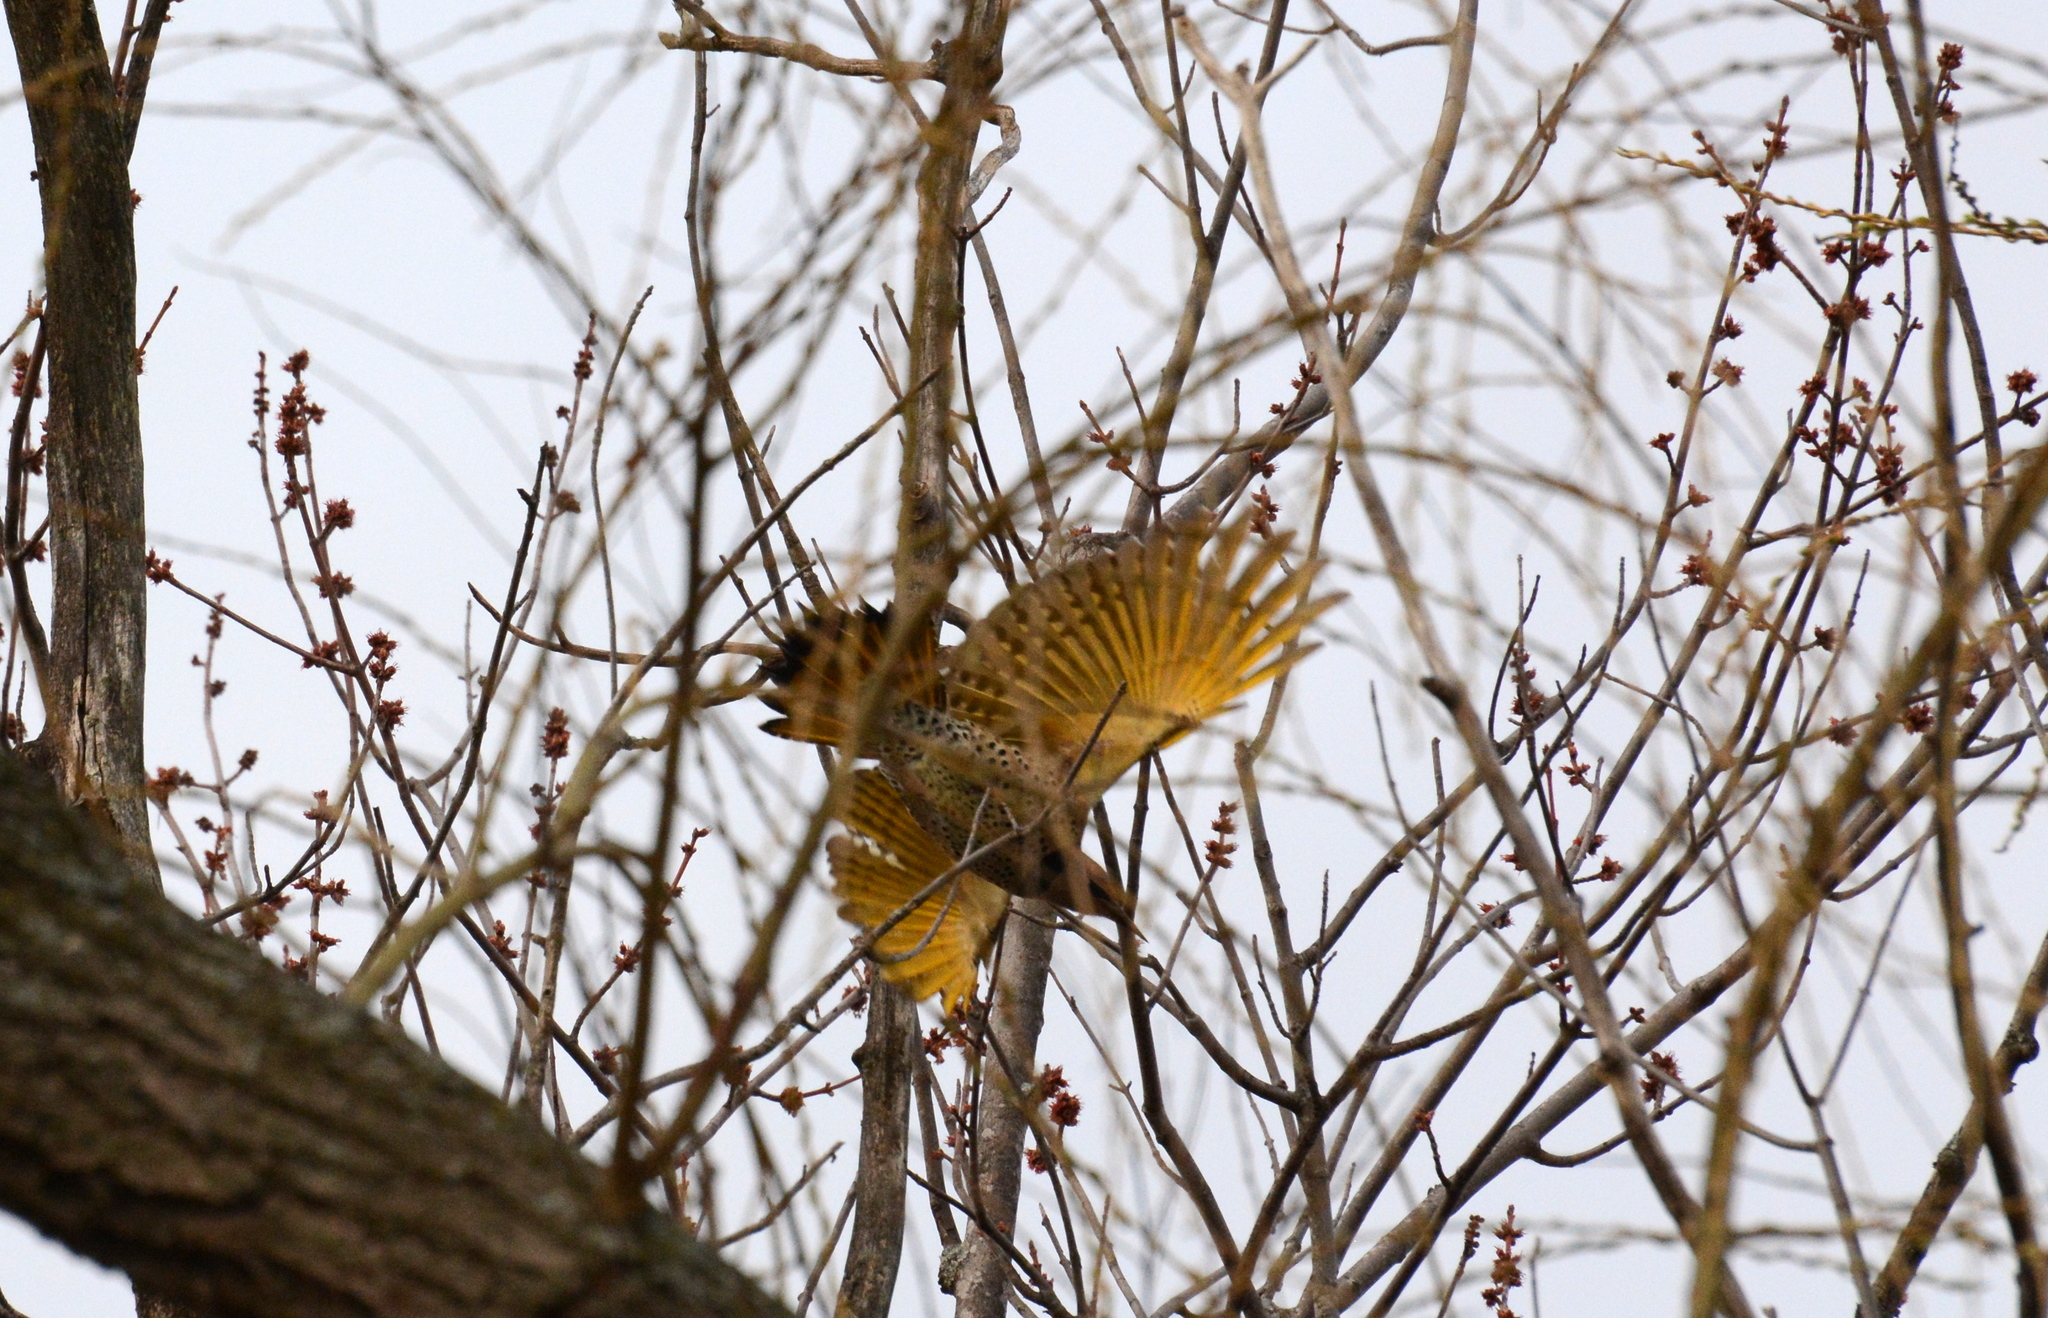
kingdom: Animalia
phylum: Chordata
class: Aves
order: Piciformes
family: Picidae
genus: Colaptes
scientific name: Colaptes auratus
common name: Northern flicker
